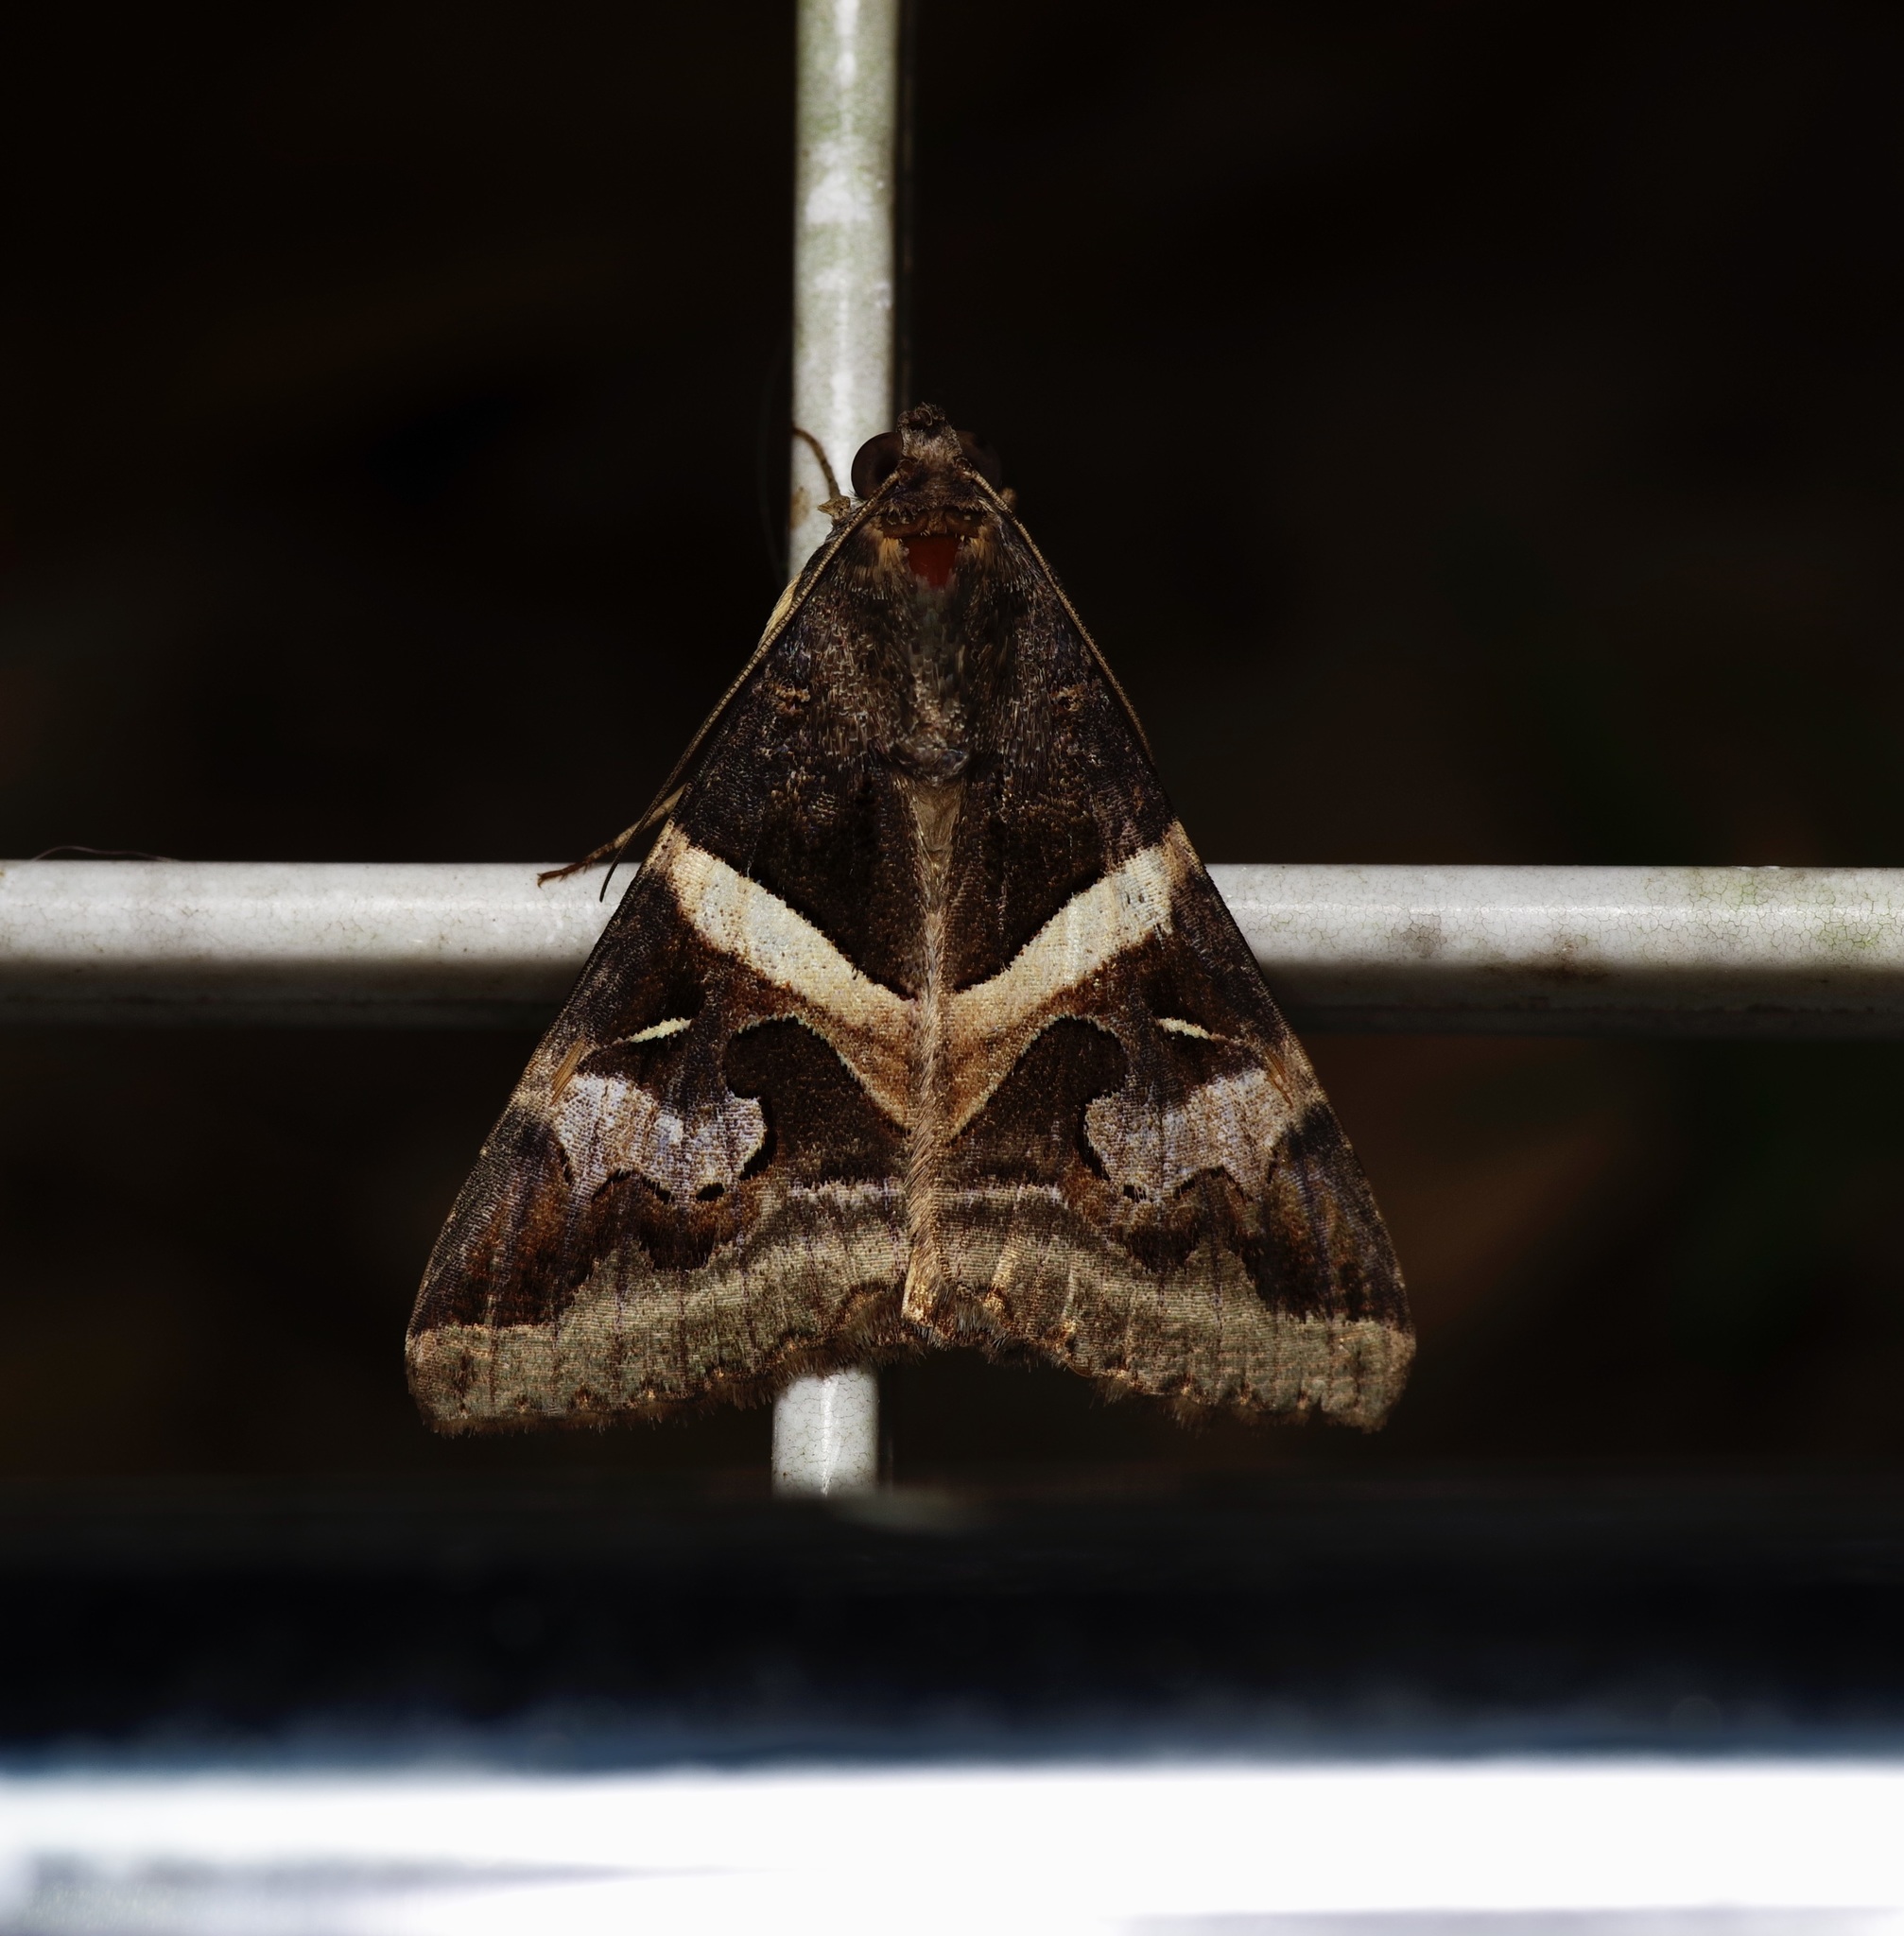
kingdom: Animalia
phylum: Arthropoda
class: Insecta
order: Lepidoptera
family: Erebidae
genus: Melipotis
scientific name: Melipotis indomita
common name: Moth
